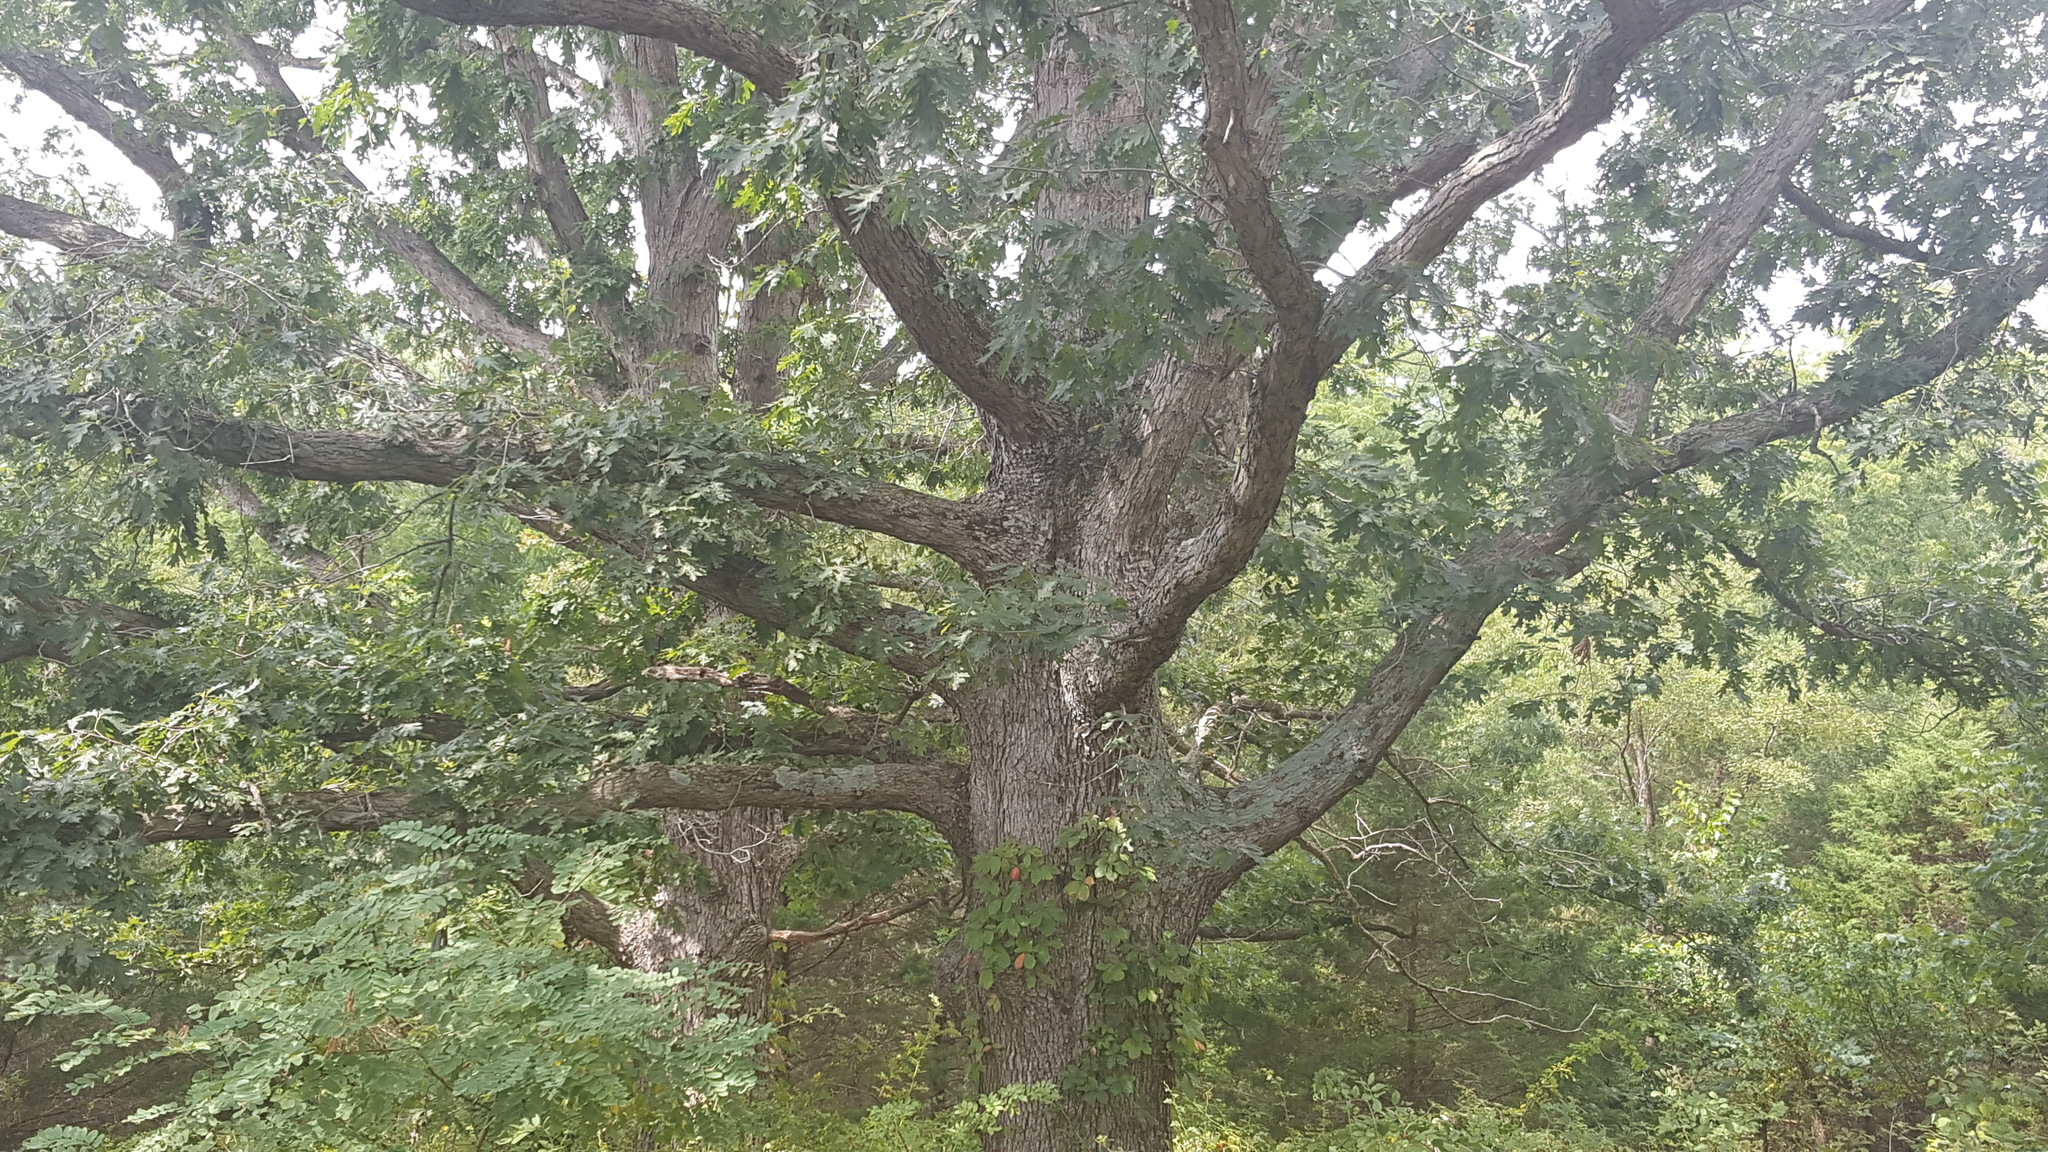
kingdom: Plantae
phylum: Tracheophyta
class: Magnoliopsida
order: Fagales
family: Fagaceae
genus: Quercus
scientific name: Quercus alba
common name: White oak
